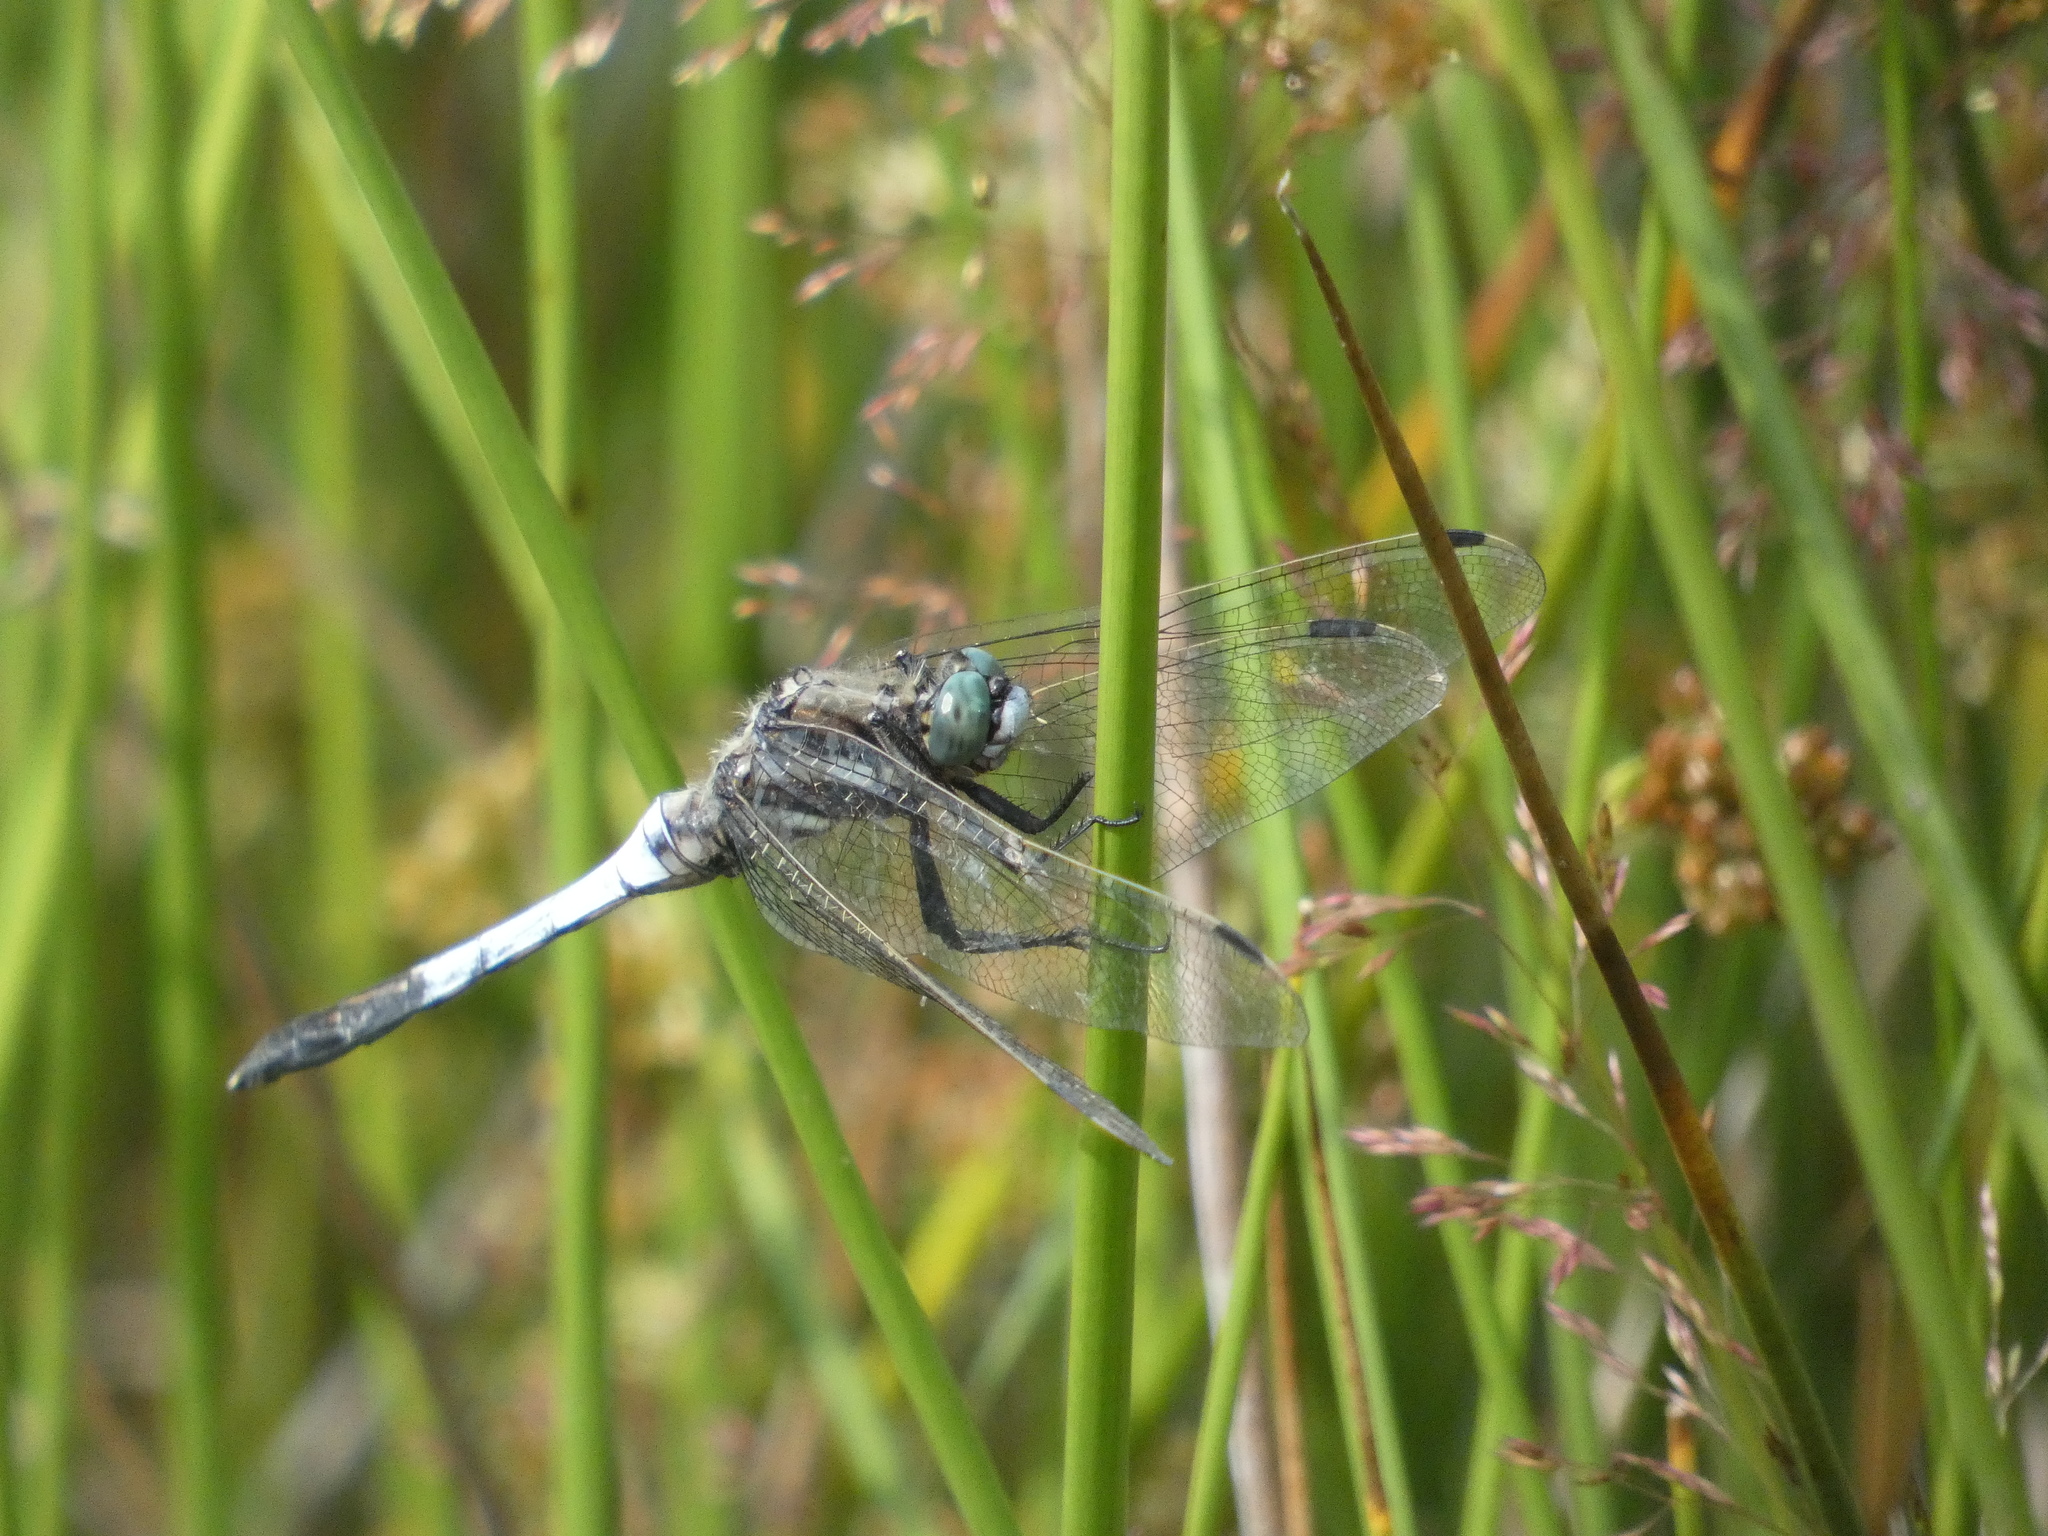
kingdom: Animalia
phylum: Arthropoda
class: Insecta
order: Odonata
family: Libellulidae
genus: Orthetrum
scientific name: Orthetrum albistylum
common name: White-tailed skimmer
